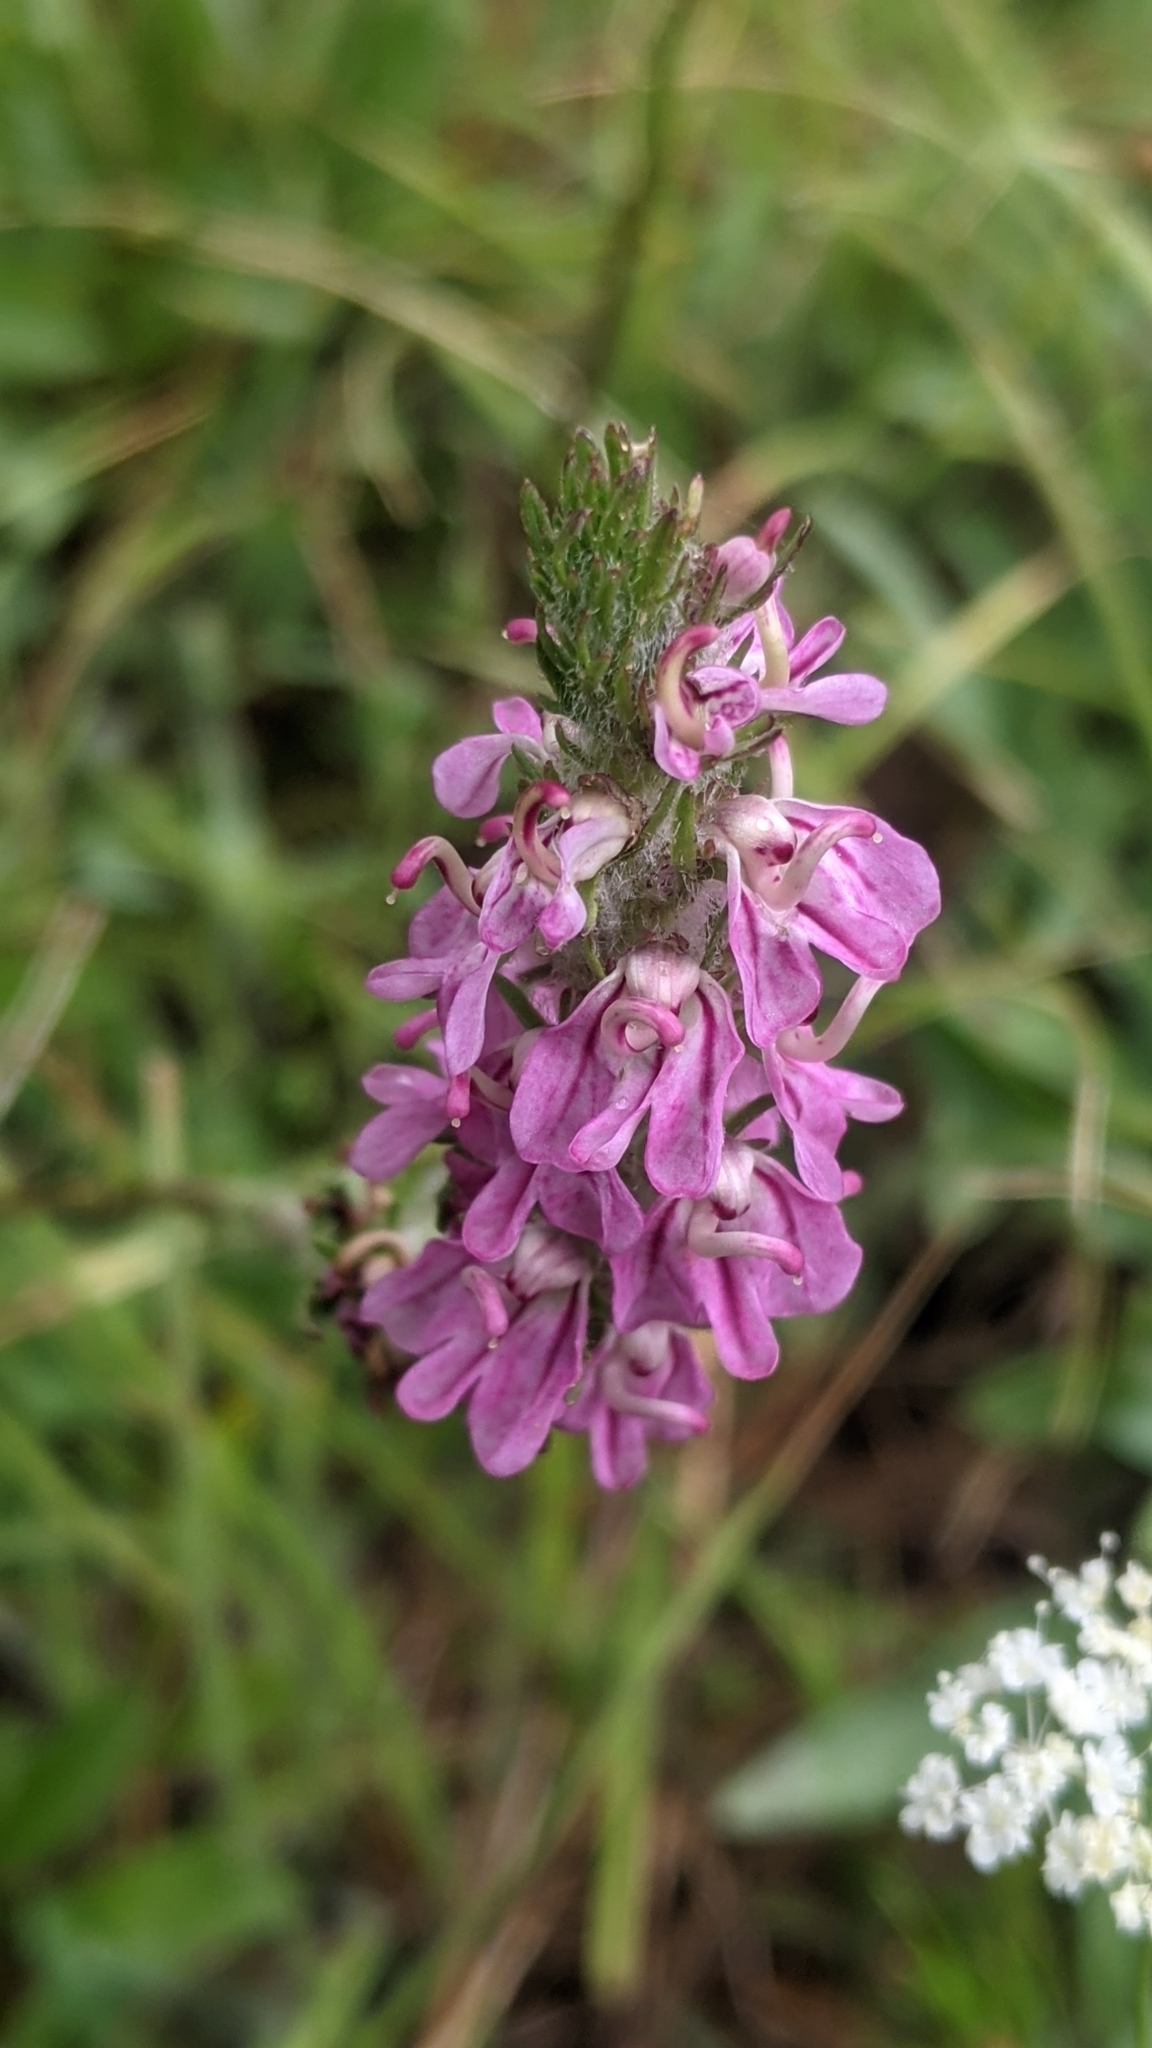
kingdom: Plantae
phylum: Tracheophyta
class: Magnoliopsida
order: Lamiales
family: Orobanchaceae
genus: Pedicularis
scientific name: Pedicularis attollens
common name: Slender pedicularis
